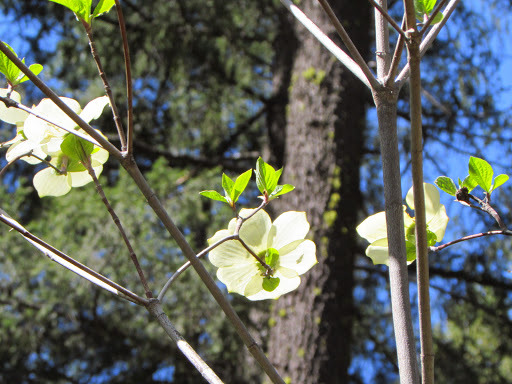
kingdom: Plantae
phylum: Tracheophyta
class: Magnoliopsida
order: Cornales
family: Cornaceae
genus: Cornus
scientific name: Cornus nuttallii
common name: Pacific dogwood
